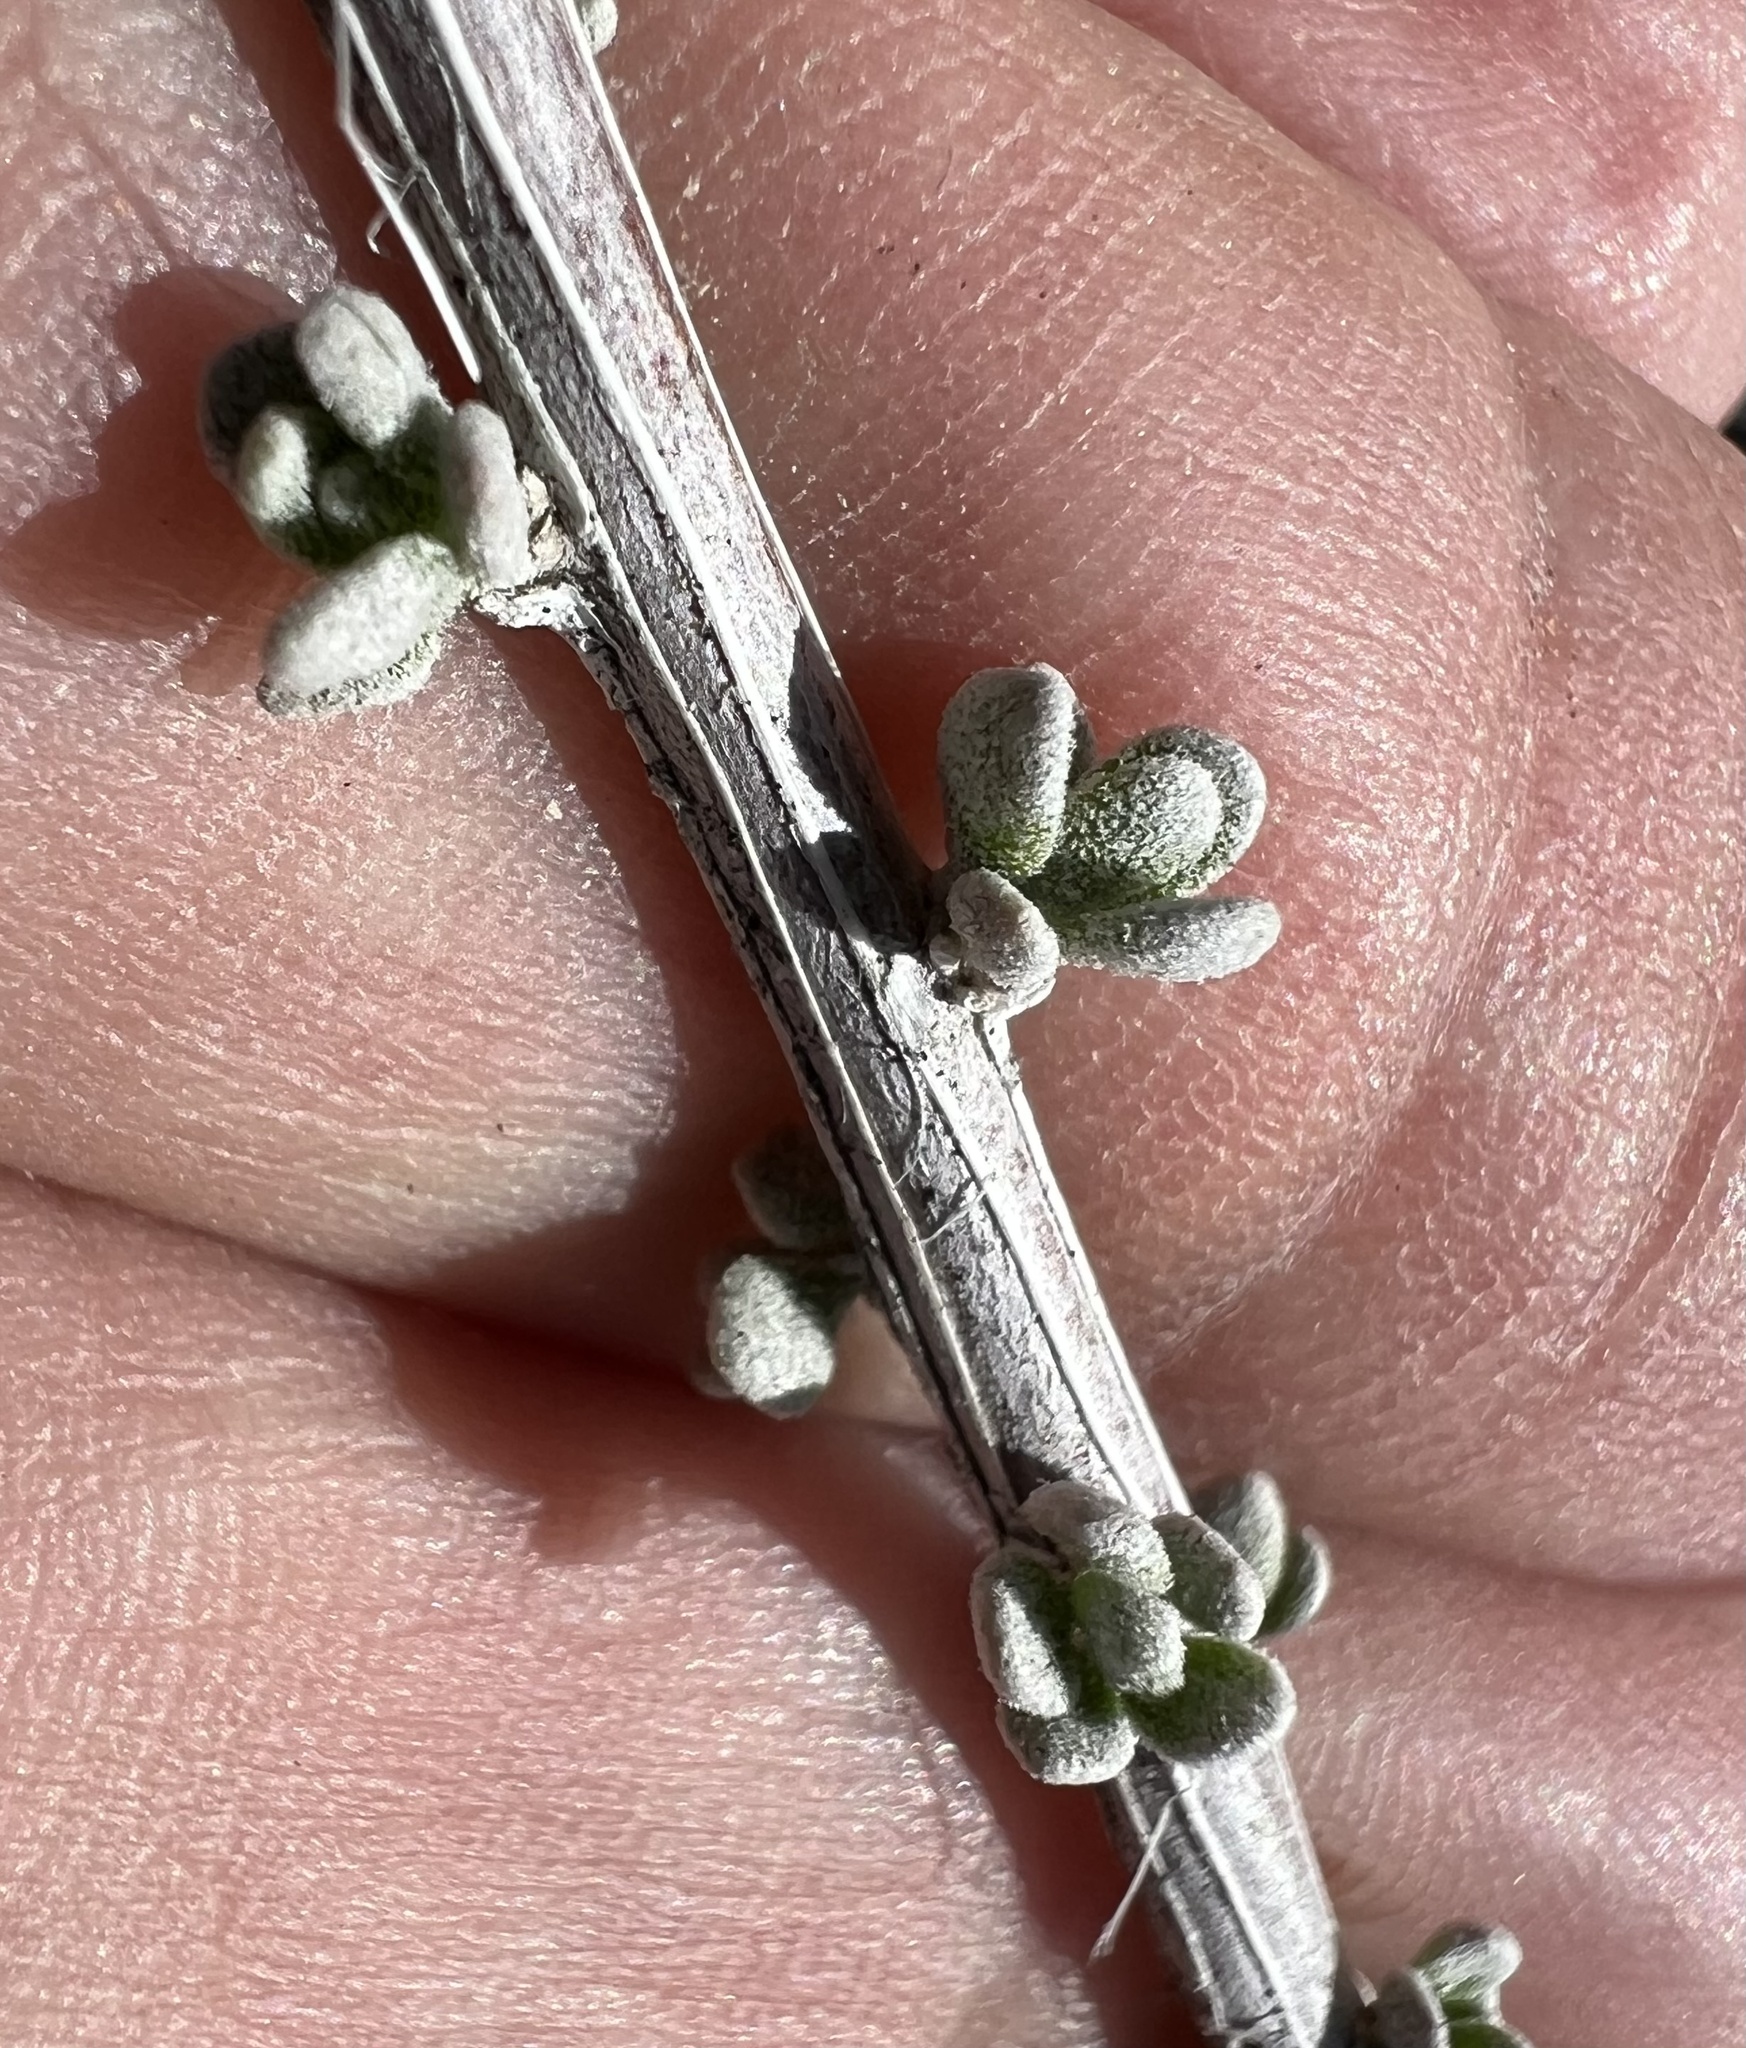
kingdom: Plantae
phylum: Tracheophyta
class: Magnoliopsida
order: Caryophyllales
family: Amaranthaceae
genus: Grayia
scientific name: Grayia spinosa
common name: Spiny hopsage
